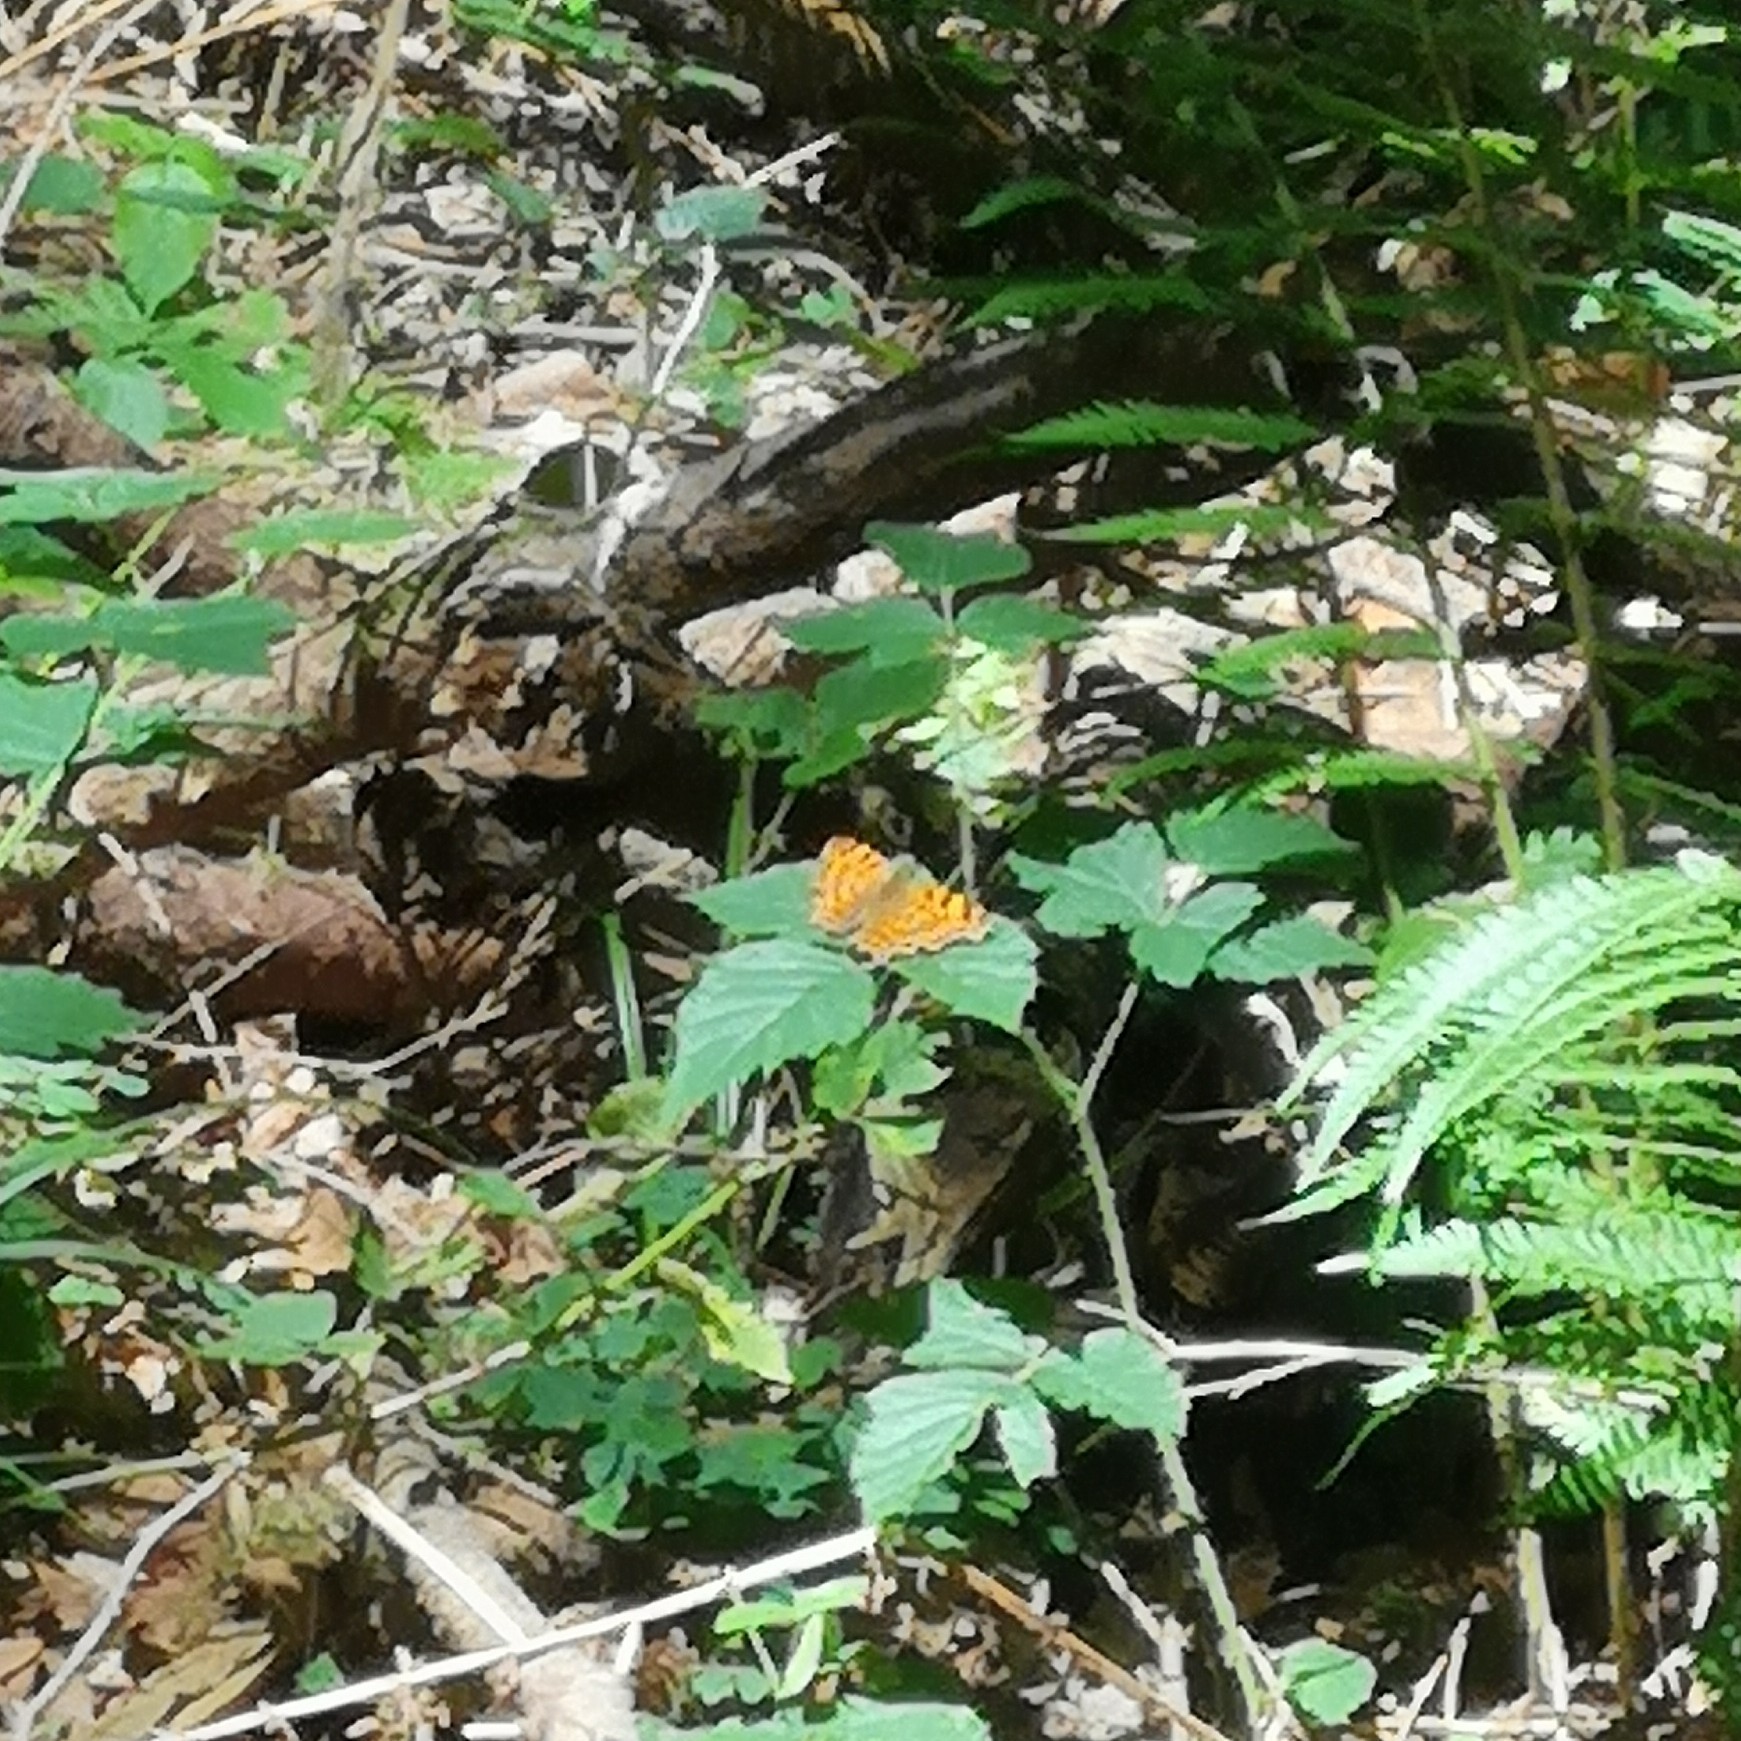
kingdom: Animalia
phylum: Arthropoda
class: Insecta
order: Lepidoptera
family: Nymphalidae
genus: Polygonia
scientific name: Polygonia c-album
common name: Comma
